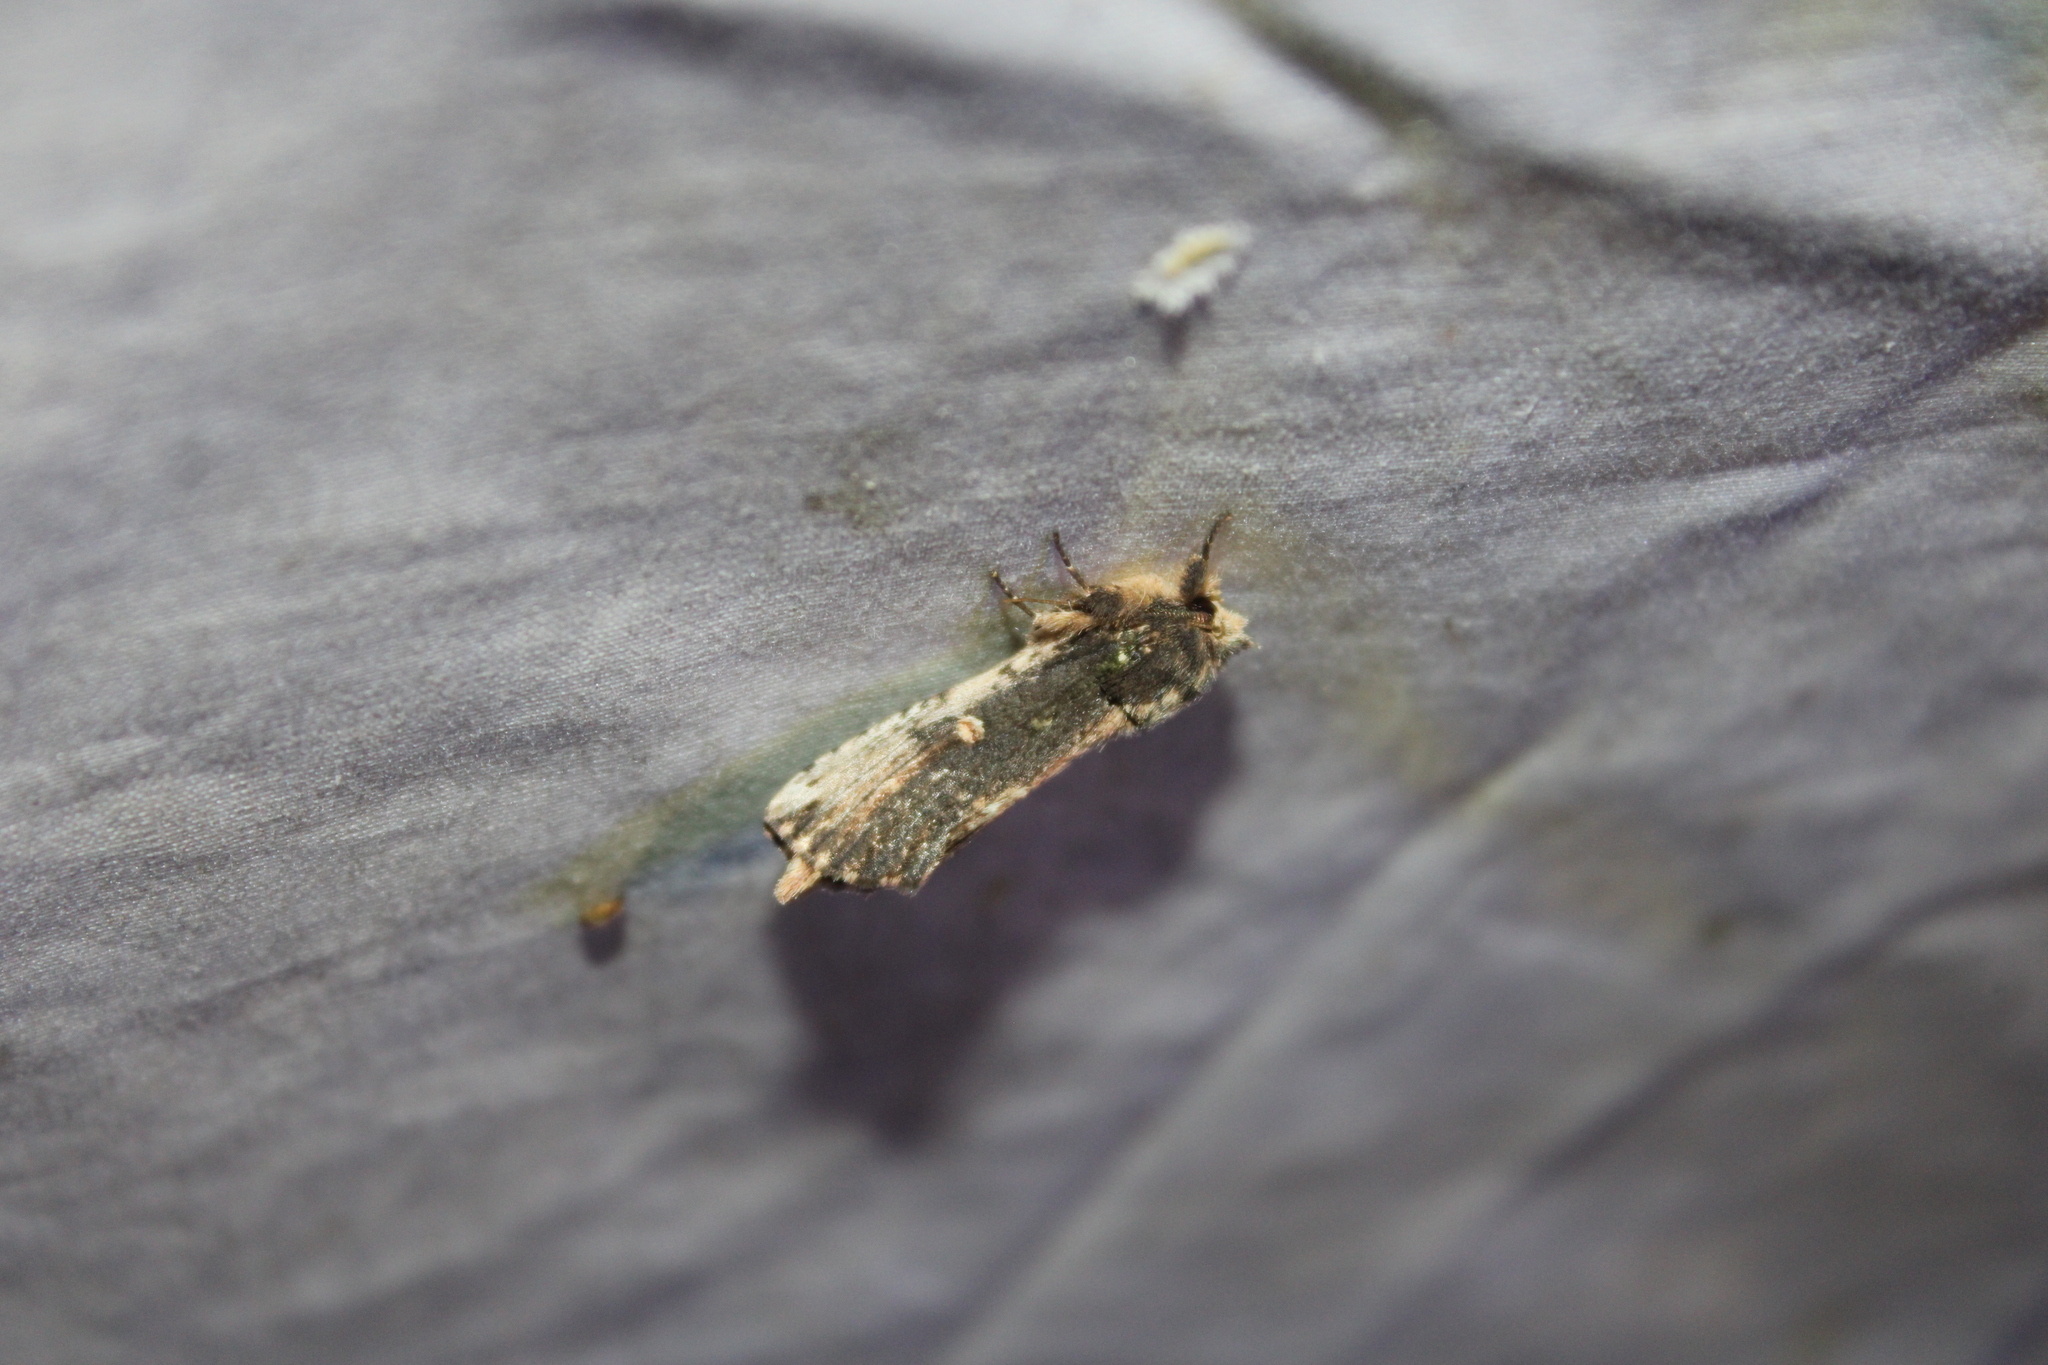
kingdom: Animalia
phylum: Arthropoda
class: Insecta
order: Lepidoptera
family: Notodontidae
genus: Schizura
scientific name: Schizura ipomaeae
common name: Morning-glory prominent
